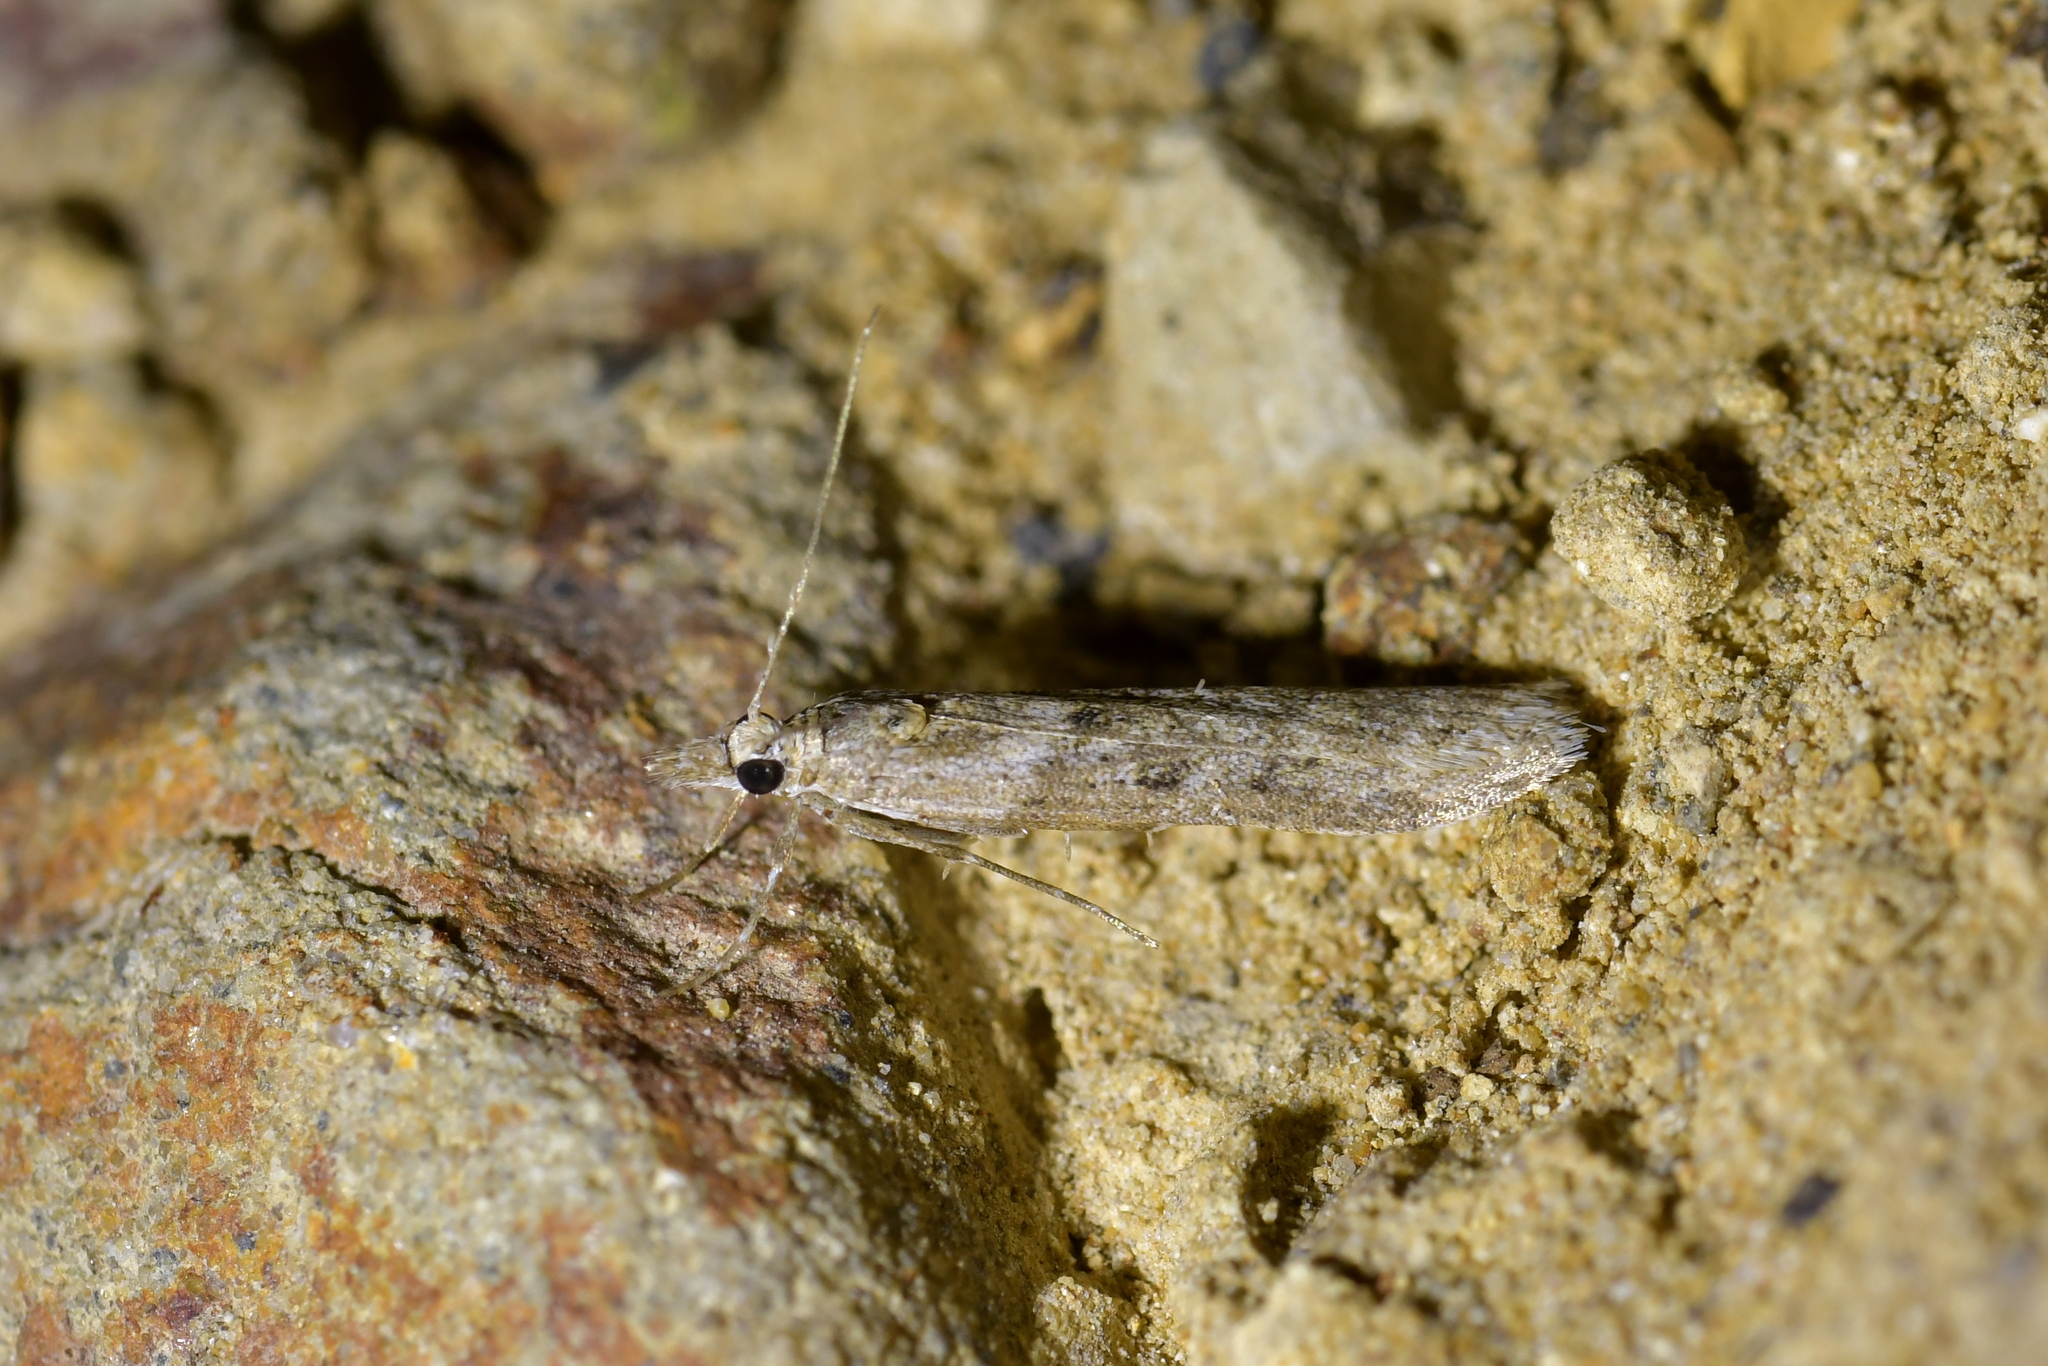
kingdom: Animalia
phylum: Arthropoda
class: Insecta
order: Lepidoptera
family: Crambidae
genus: Eudonia
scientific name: Eudonia leptalea
